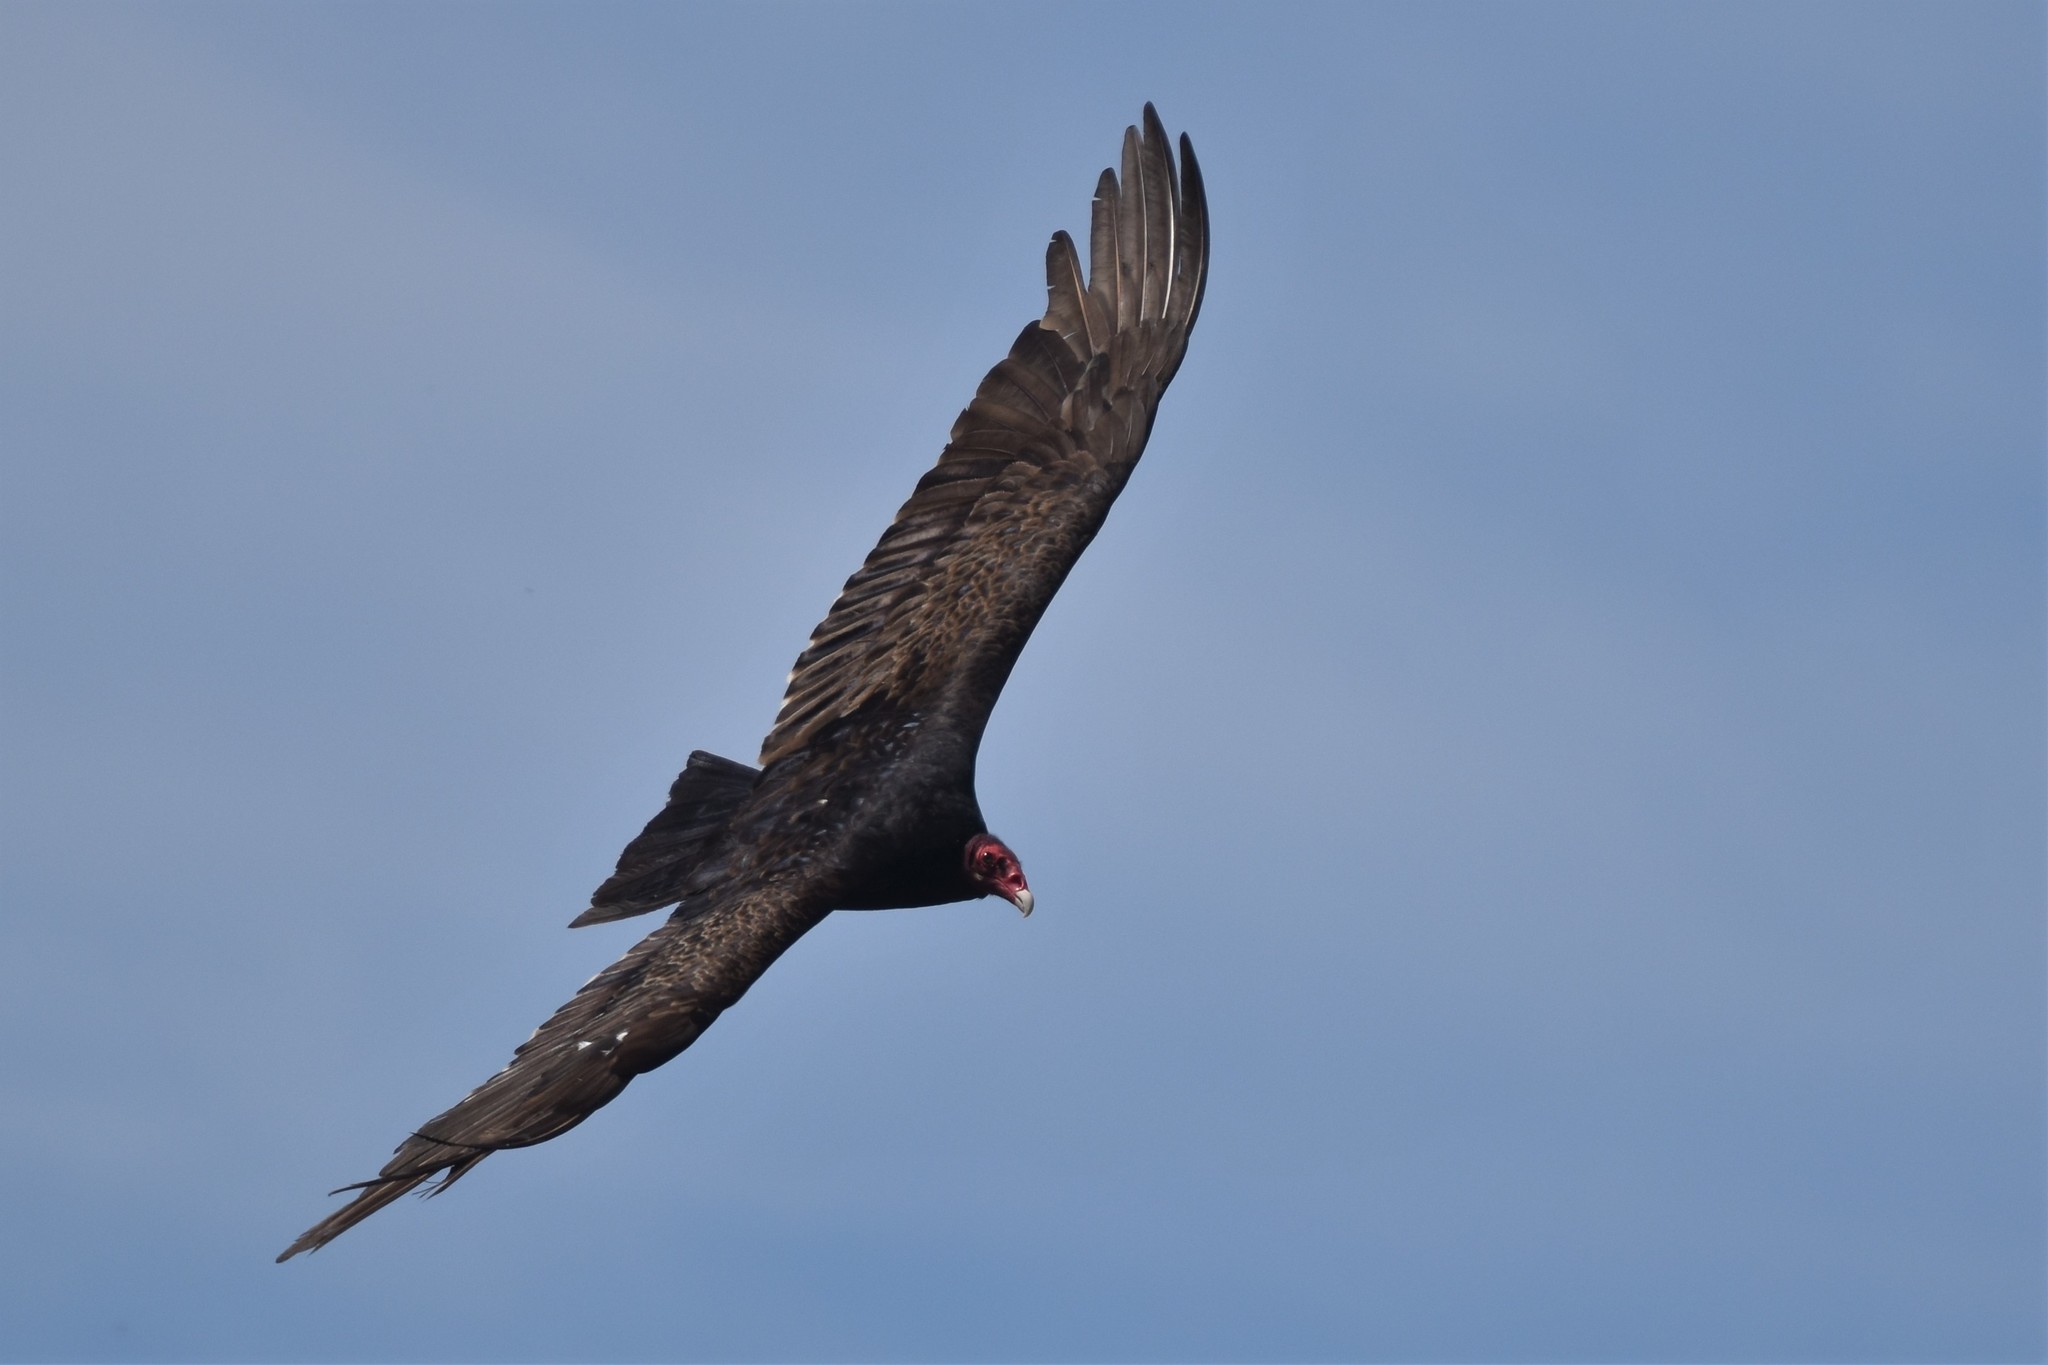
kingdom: Animalia
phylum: Chordata
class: Aves
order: Accipitriformes
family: Cathartidae
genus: Cathartes
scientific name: Cathartes aura
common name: Turkey vulture
